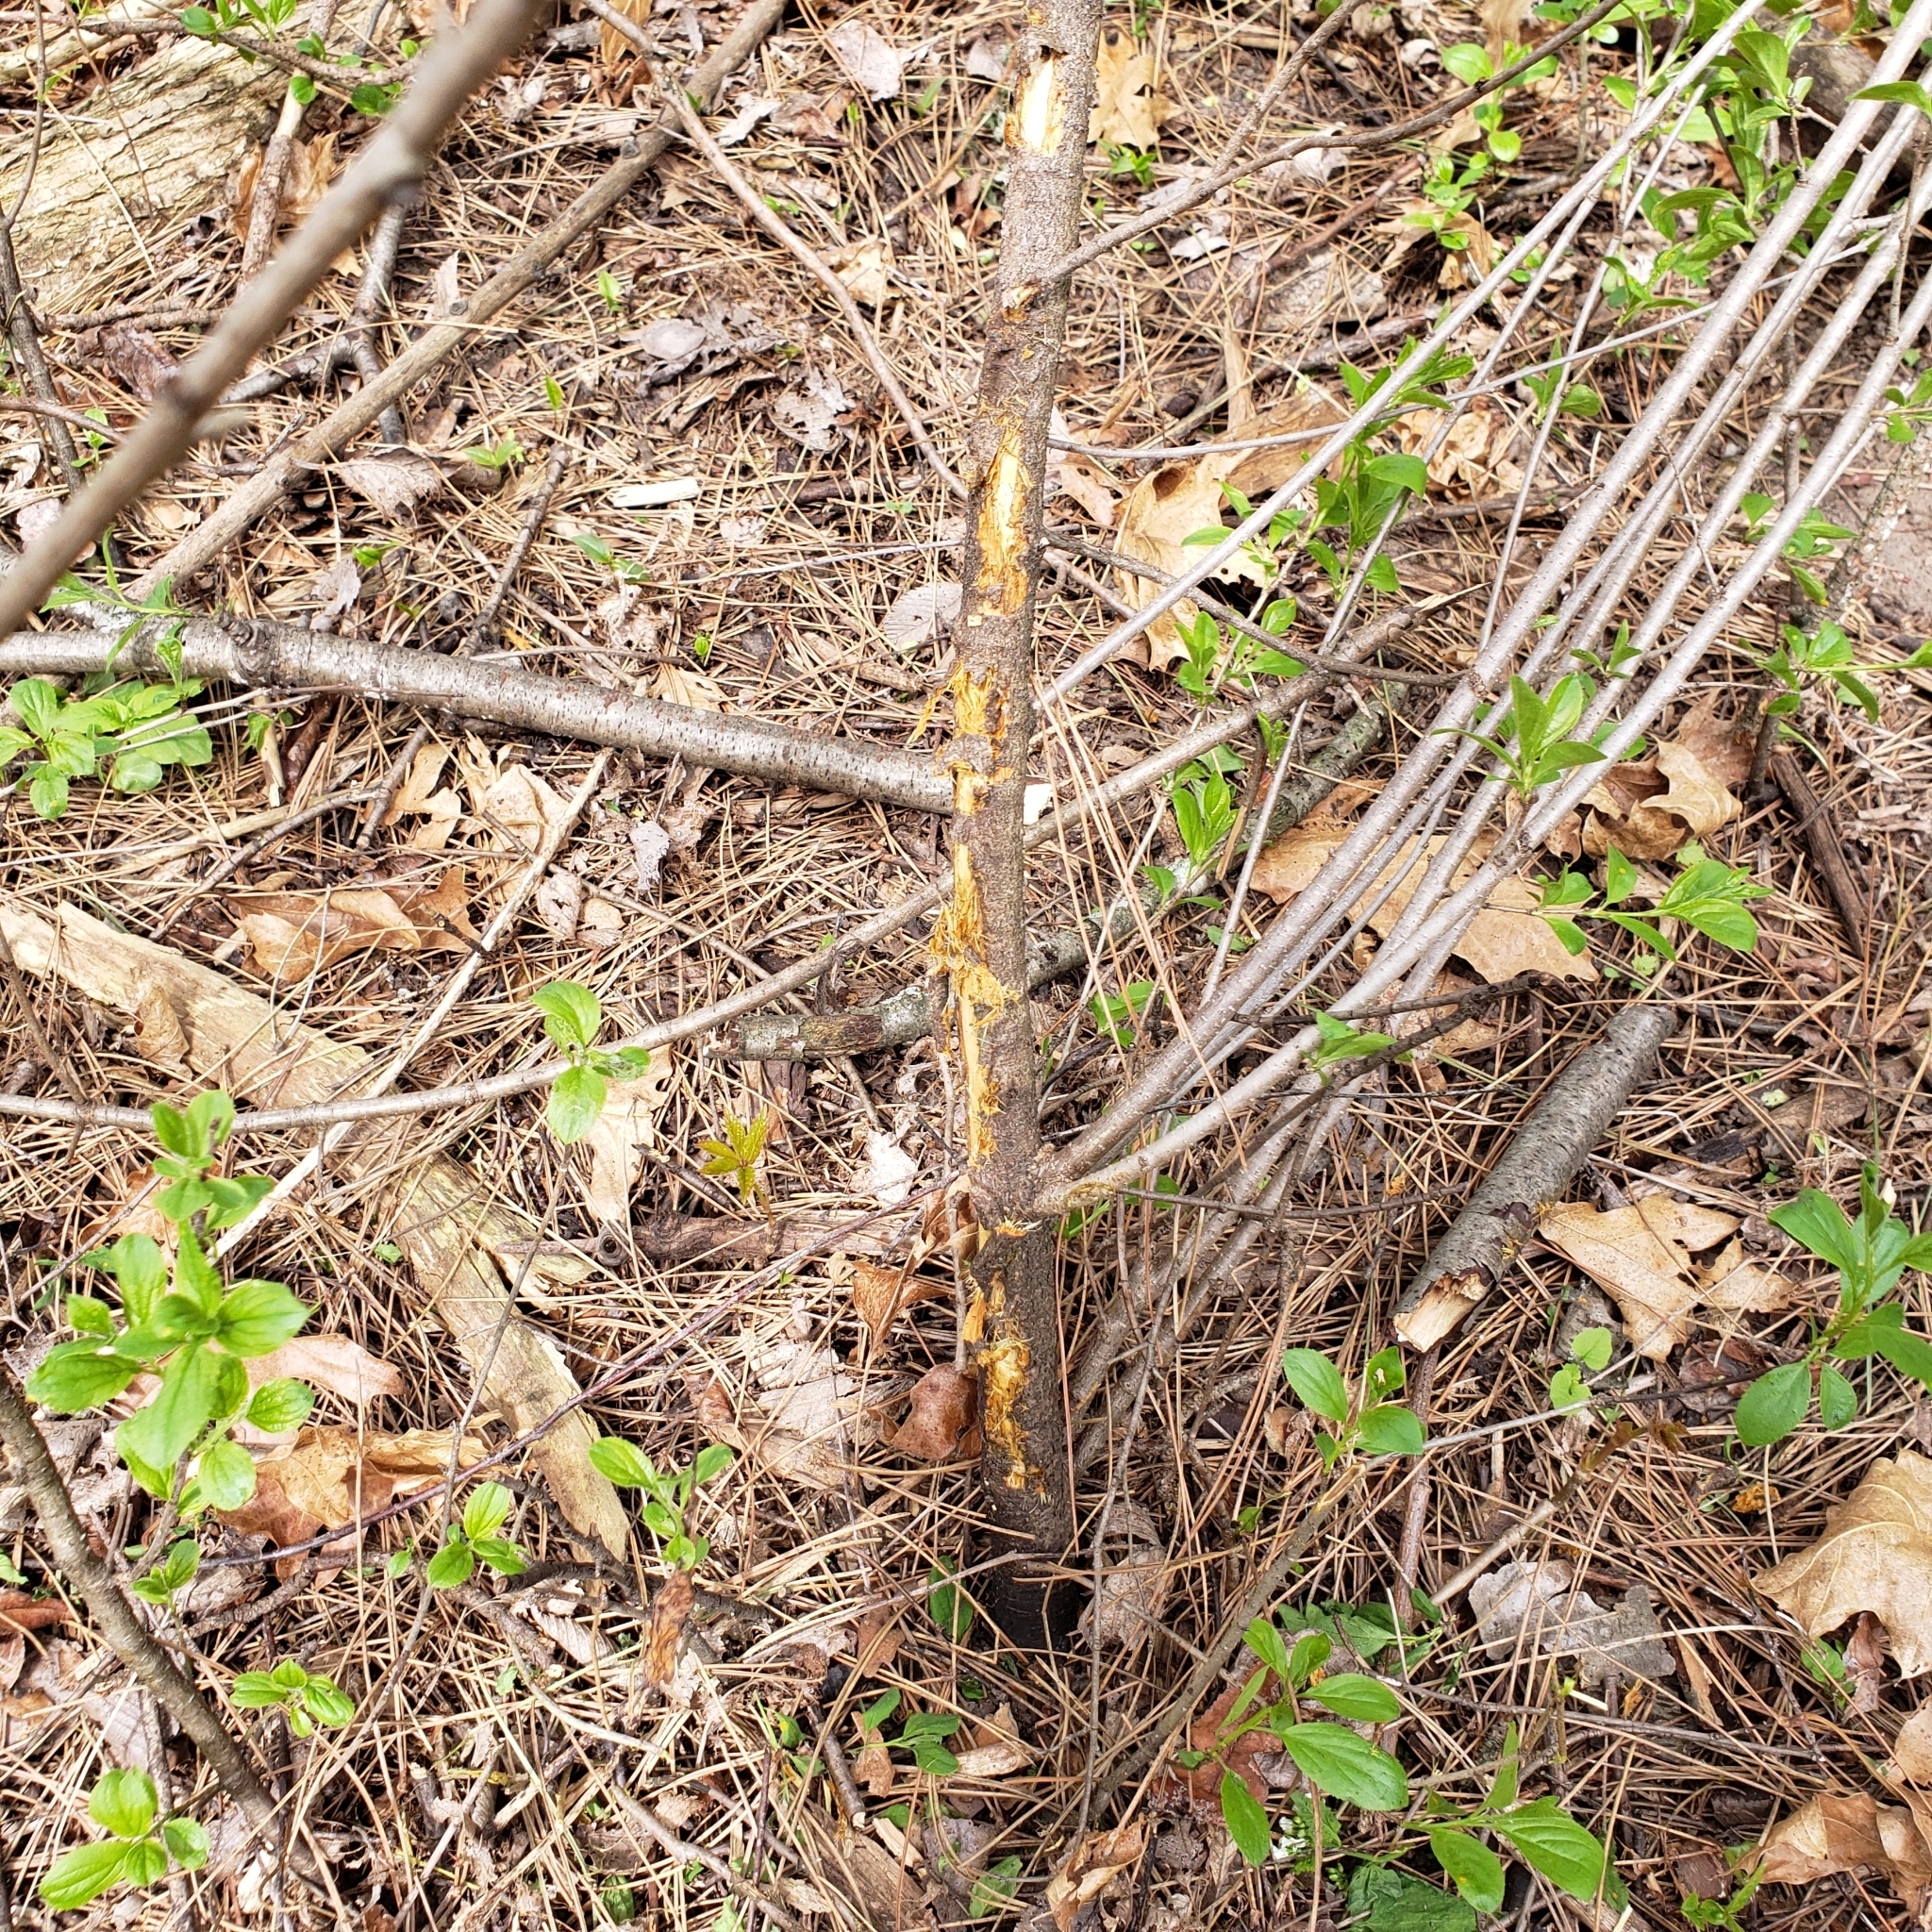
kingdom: Plantae
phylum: Tracheophyta
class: Magnoliopsida
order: Rosales
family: Rhamnaceae
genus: Rhamnus
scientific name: Rhamnus cathartica
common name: Common buckthorn
